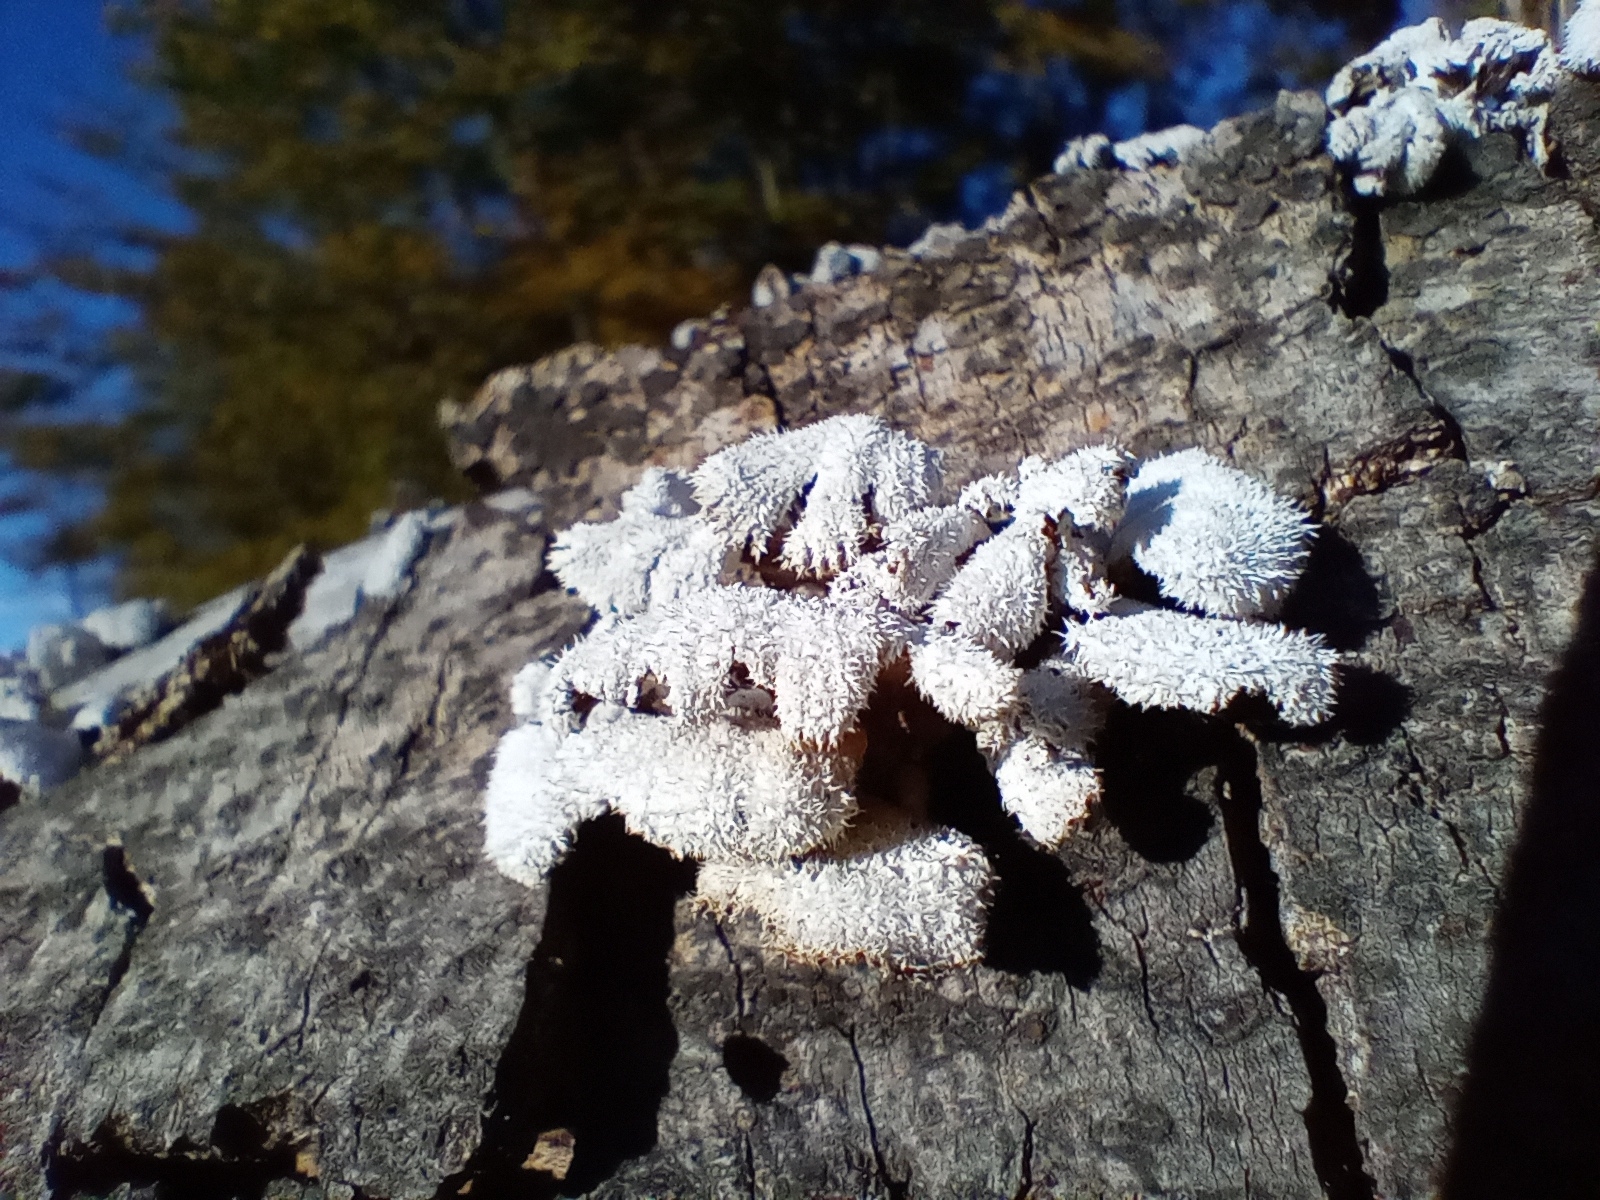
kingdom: Fungi
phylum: Basidiomycota
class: Agaricomycetes
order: Agaricales
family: Schizophyllaceae
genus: Schizophyllum
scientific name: Schizophyllum commune
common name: Common porecrust
